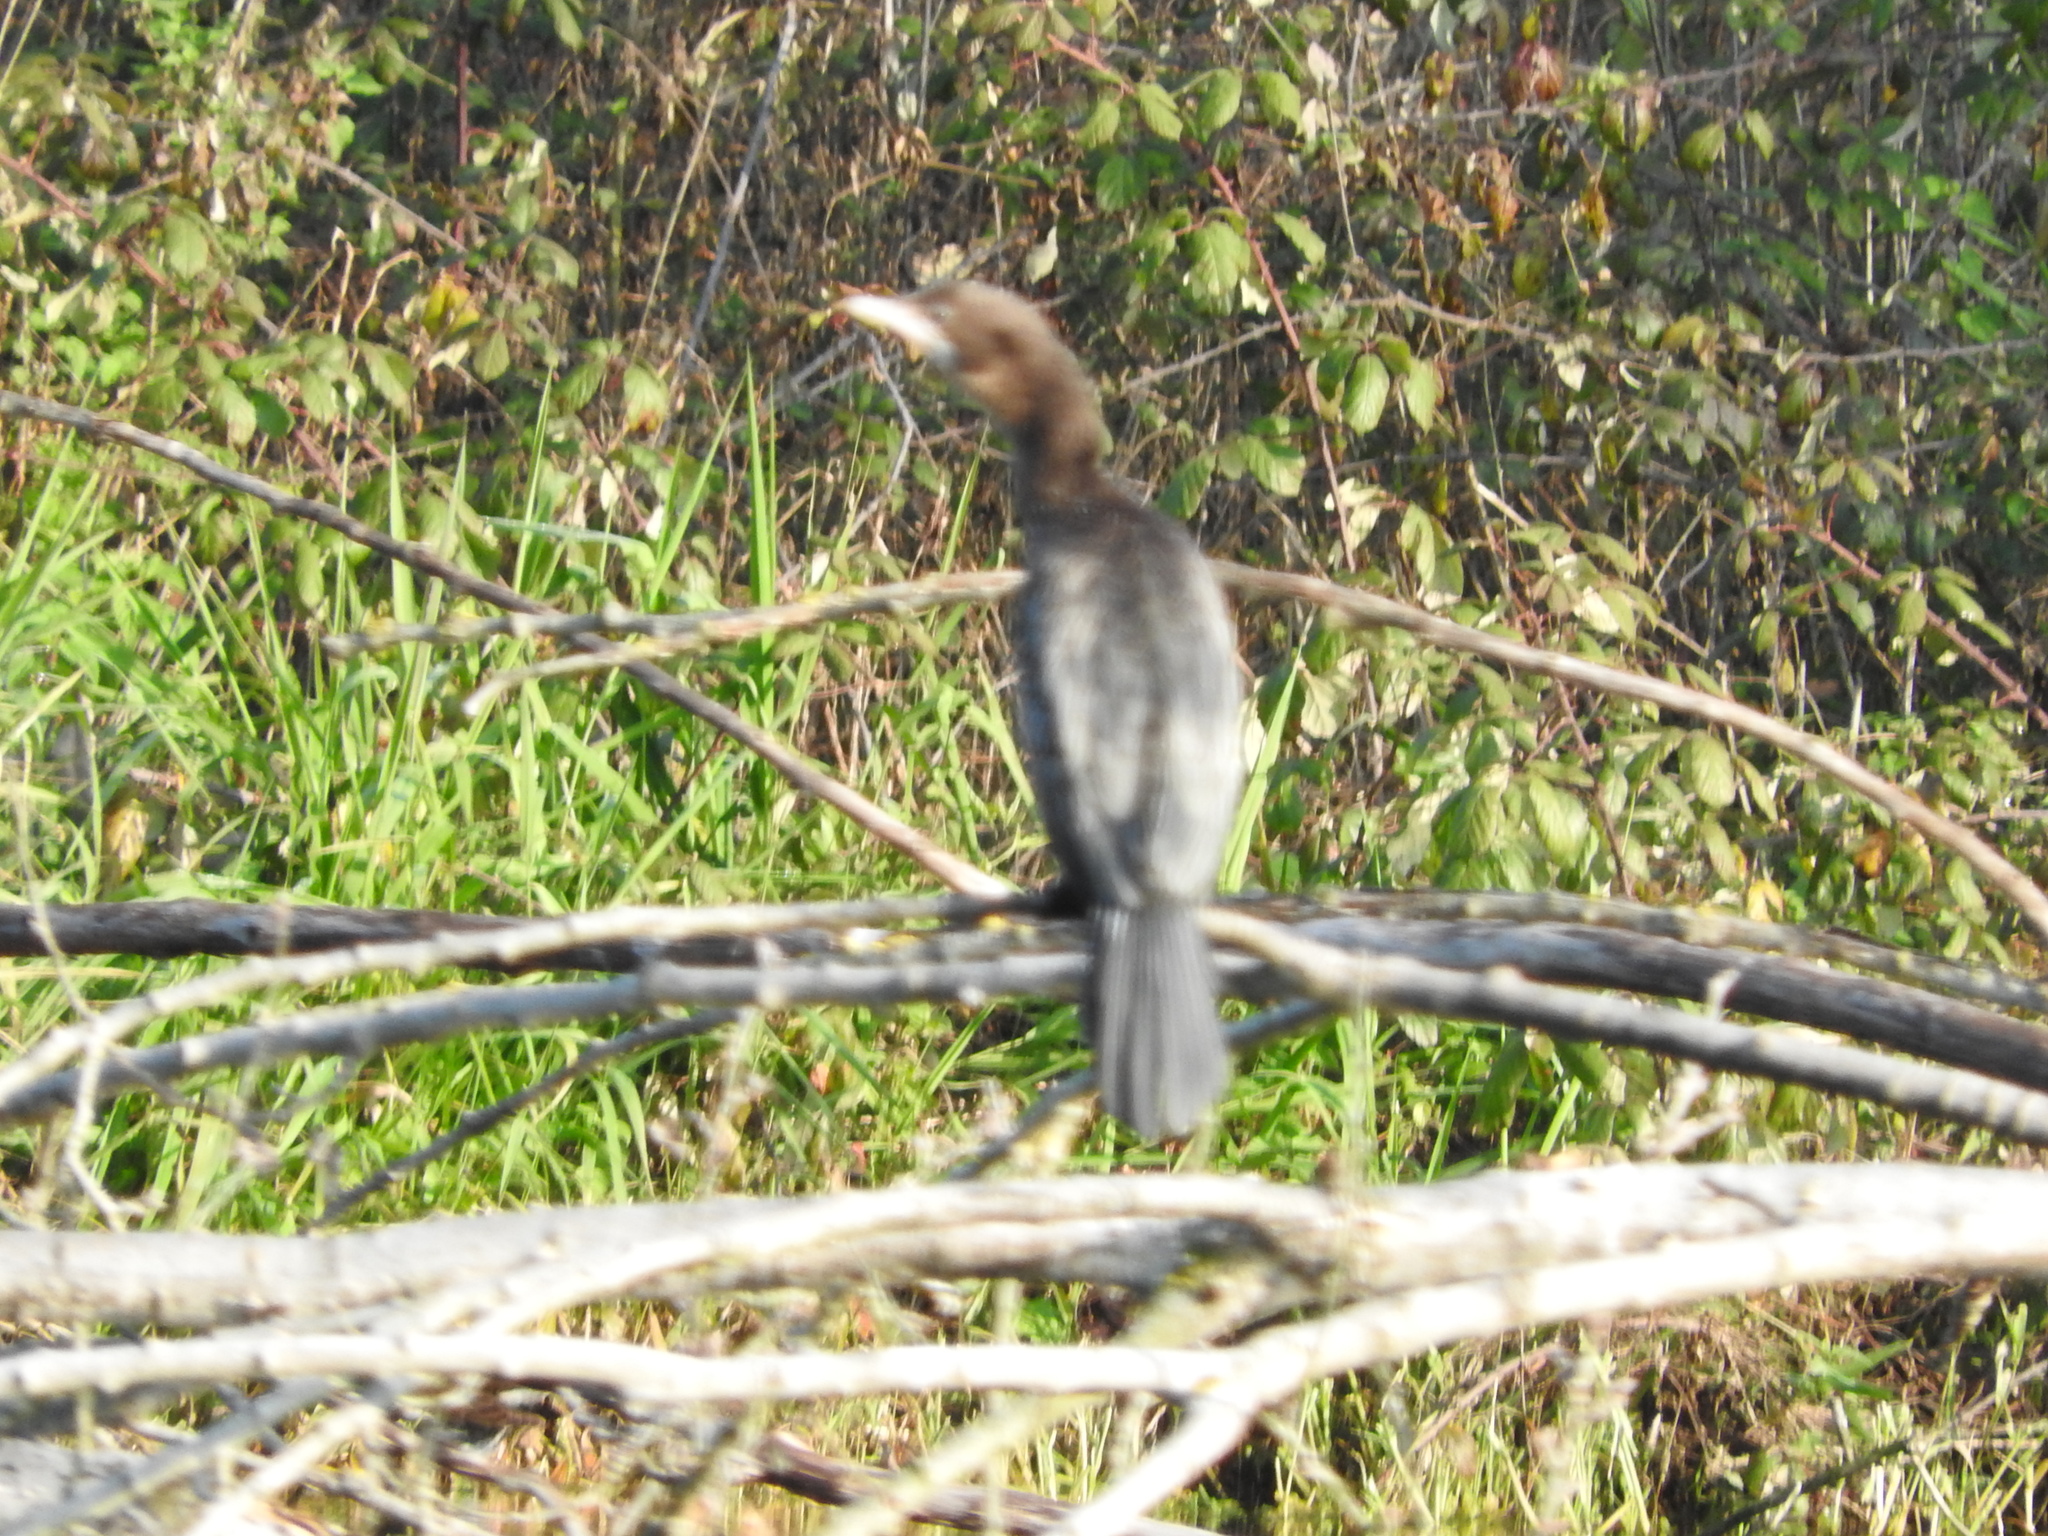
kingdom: Animalia
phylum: Chordata
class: Aves
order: Suliformes
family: Phalacrocoracidae
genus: Microcarbo
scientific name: Microcarbo pygmaeus
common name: Pygmy cormorant
